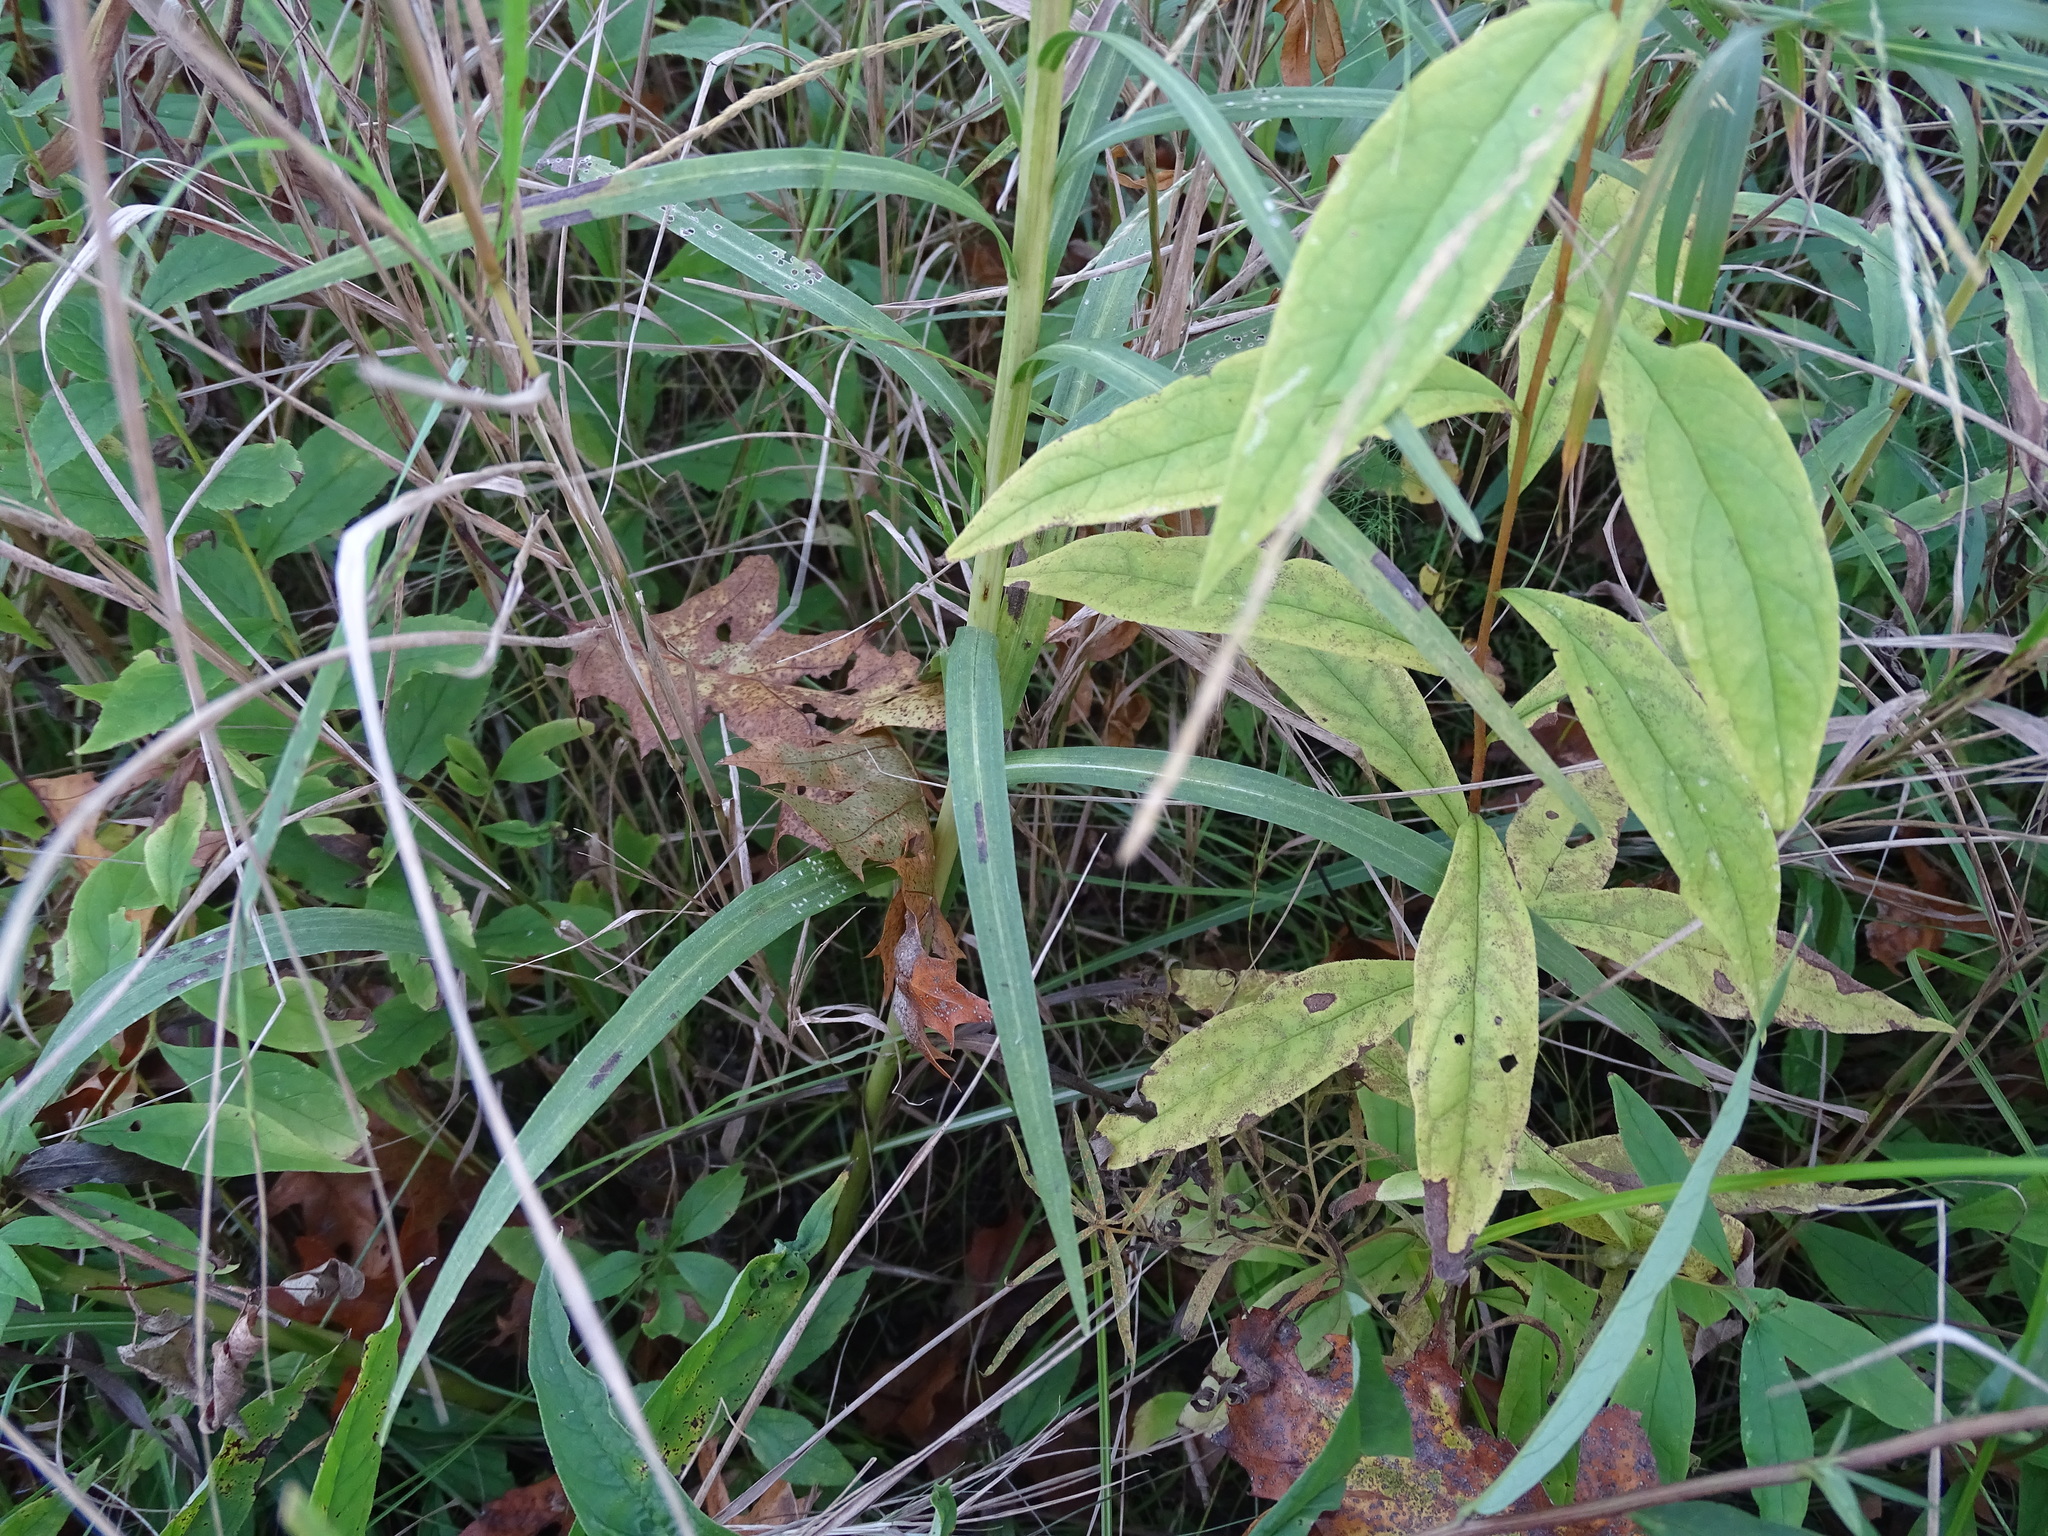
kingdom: Plantae
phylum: Tracheophyta
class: Magnoliopsida
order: Asterales
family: Asteraceae
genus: Liatris
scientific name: Liatris spicata
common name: Florist gayfeather
